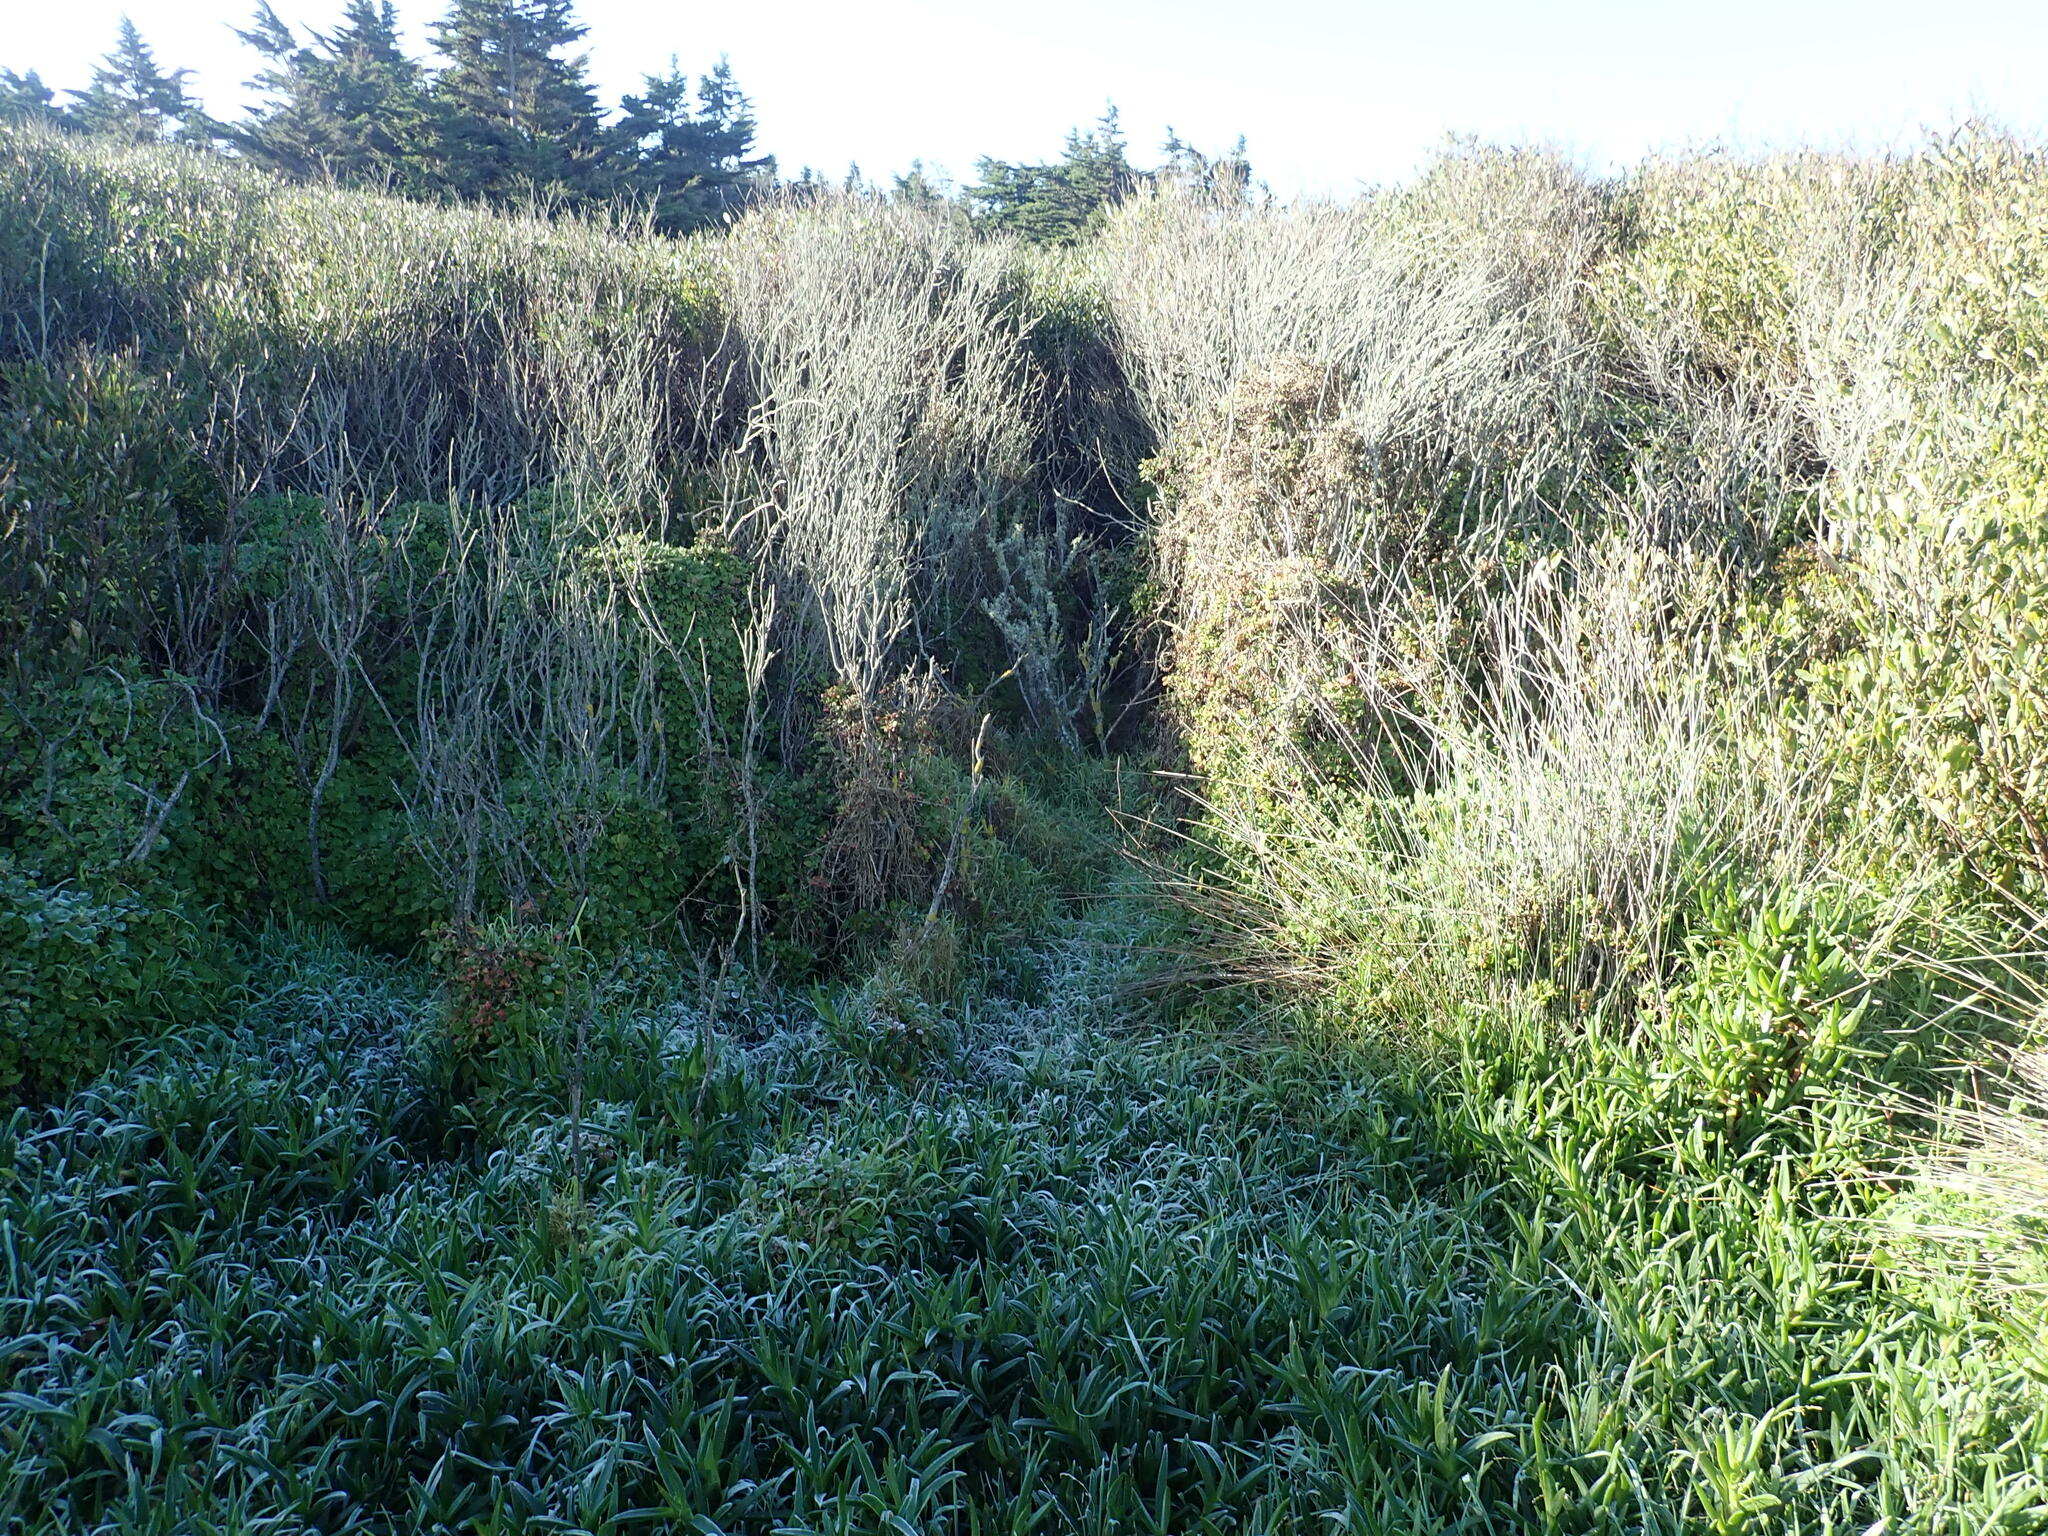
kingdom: Plantae
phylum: Tracheophyta
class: Magnoliopsida
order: Caryophyllales
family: Aizoaceae
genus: Tetragonia
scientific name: Tetragonia implexicoma
